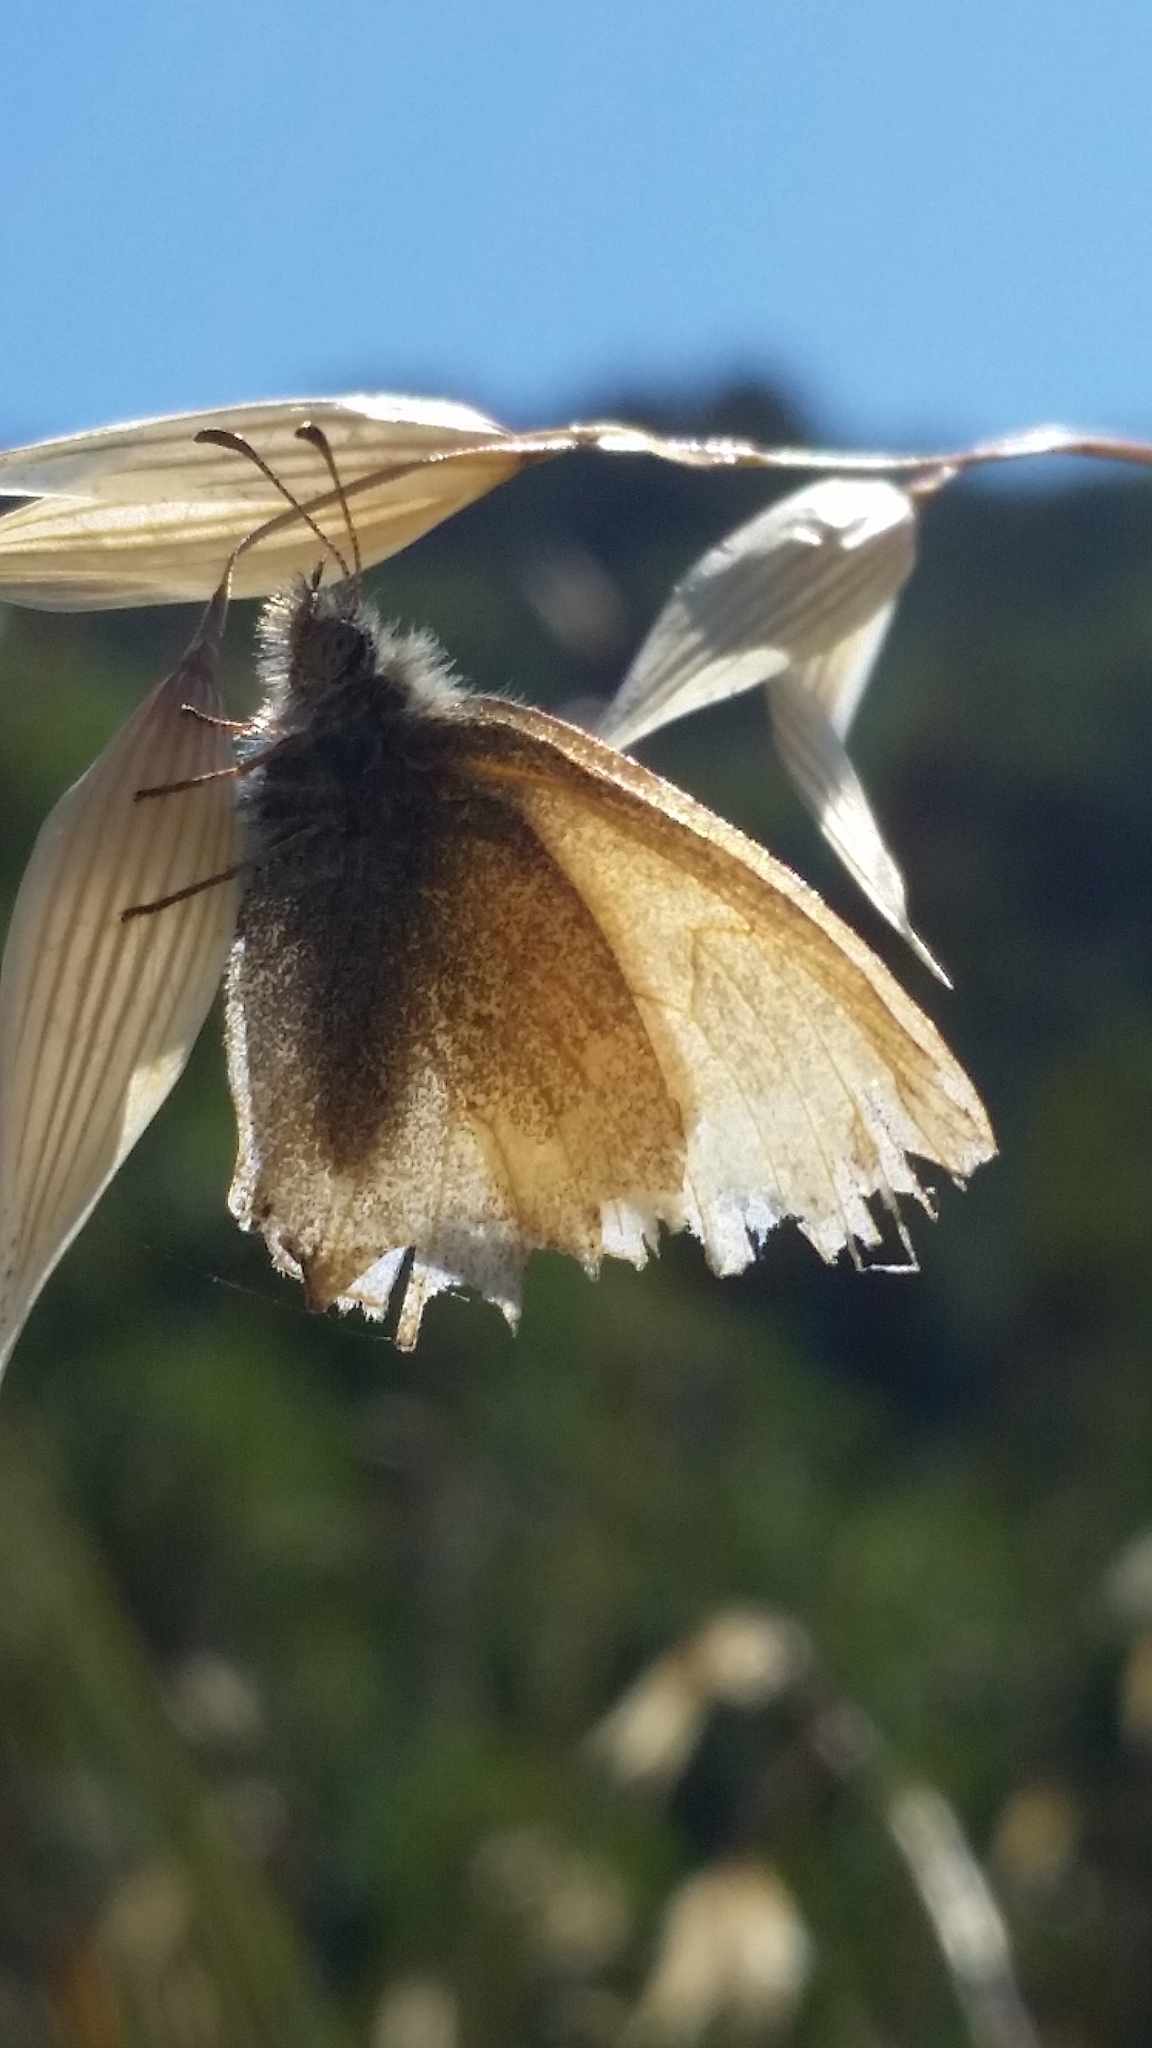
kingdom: Animalia
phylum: Arthropoda
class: Insecta
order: Lepidoptera
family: Nymphalidae
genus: Coenonympha
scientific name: Coenonympha california
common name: Common ringlet
